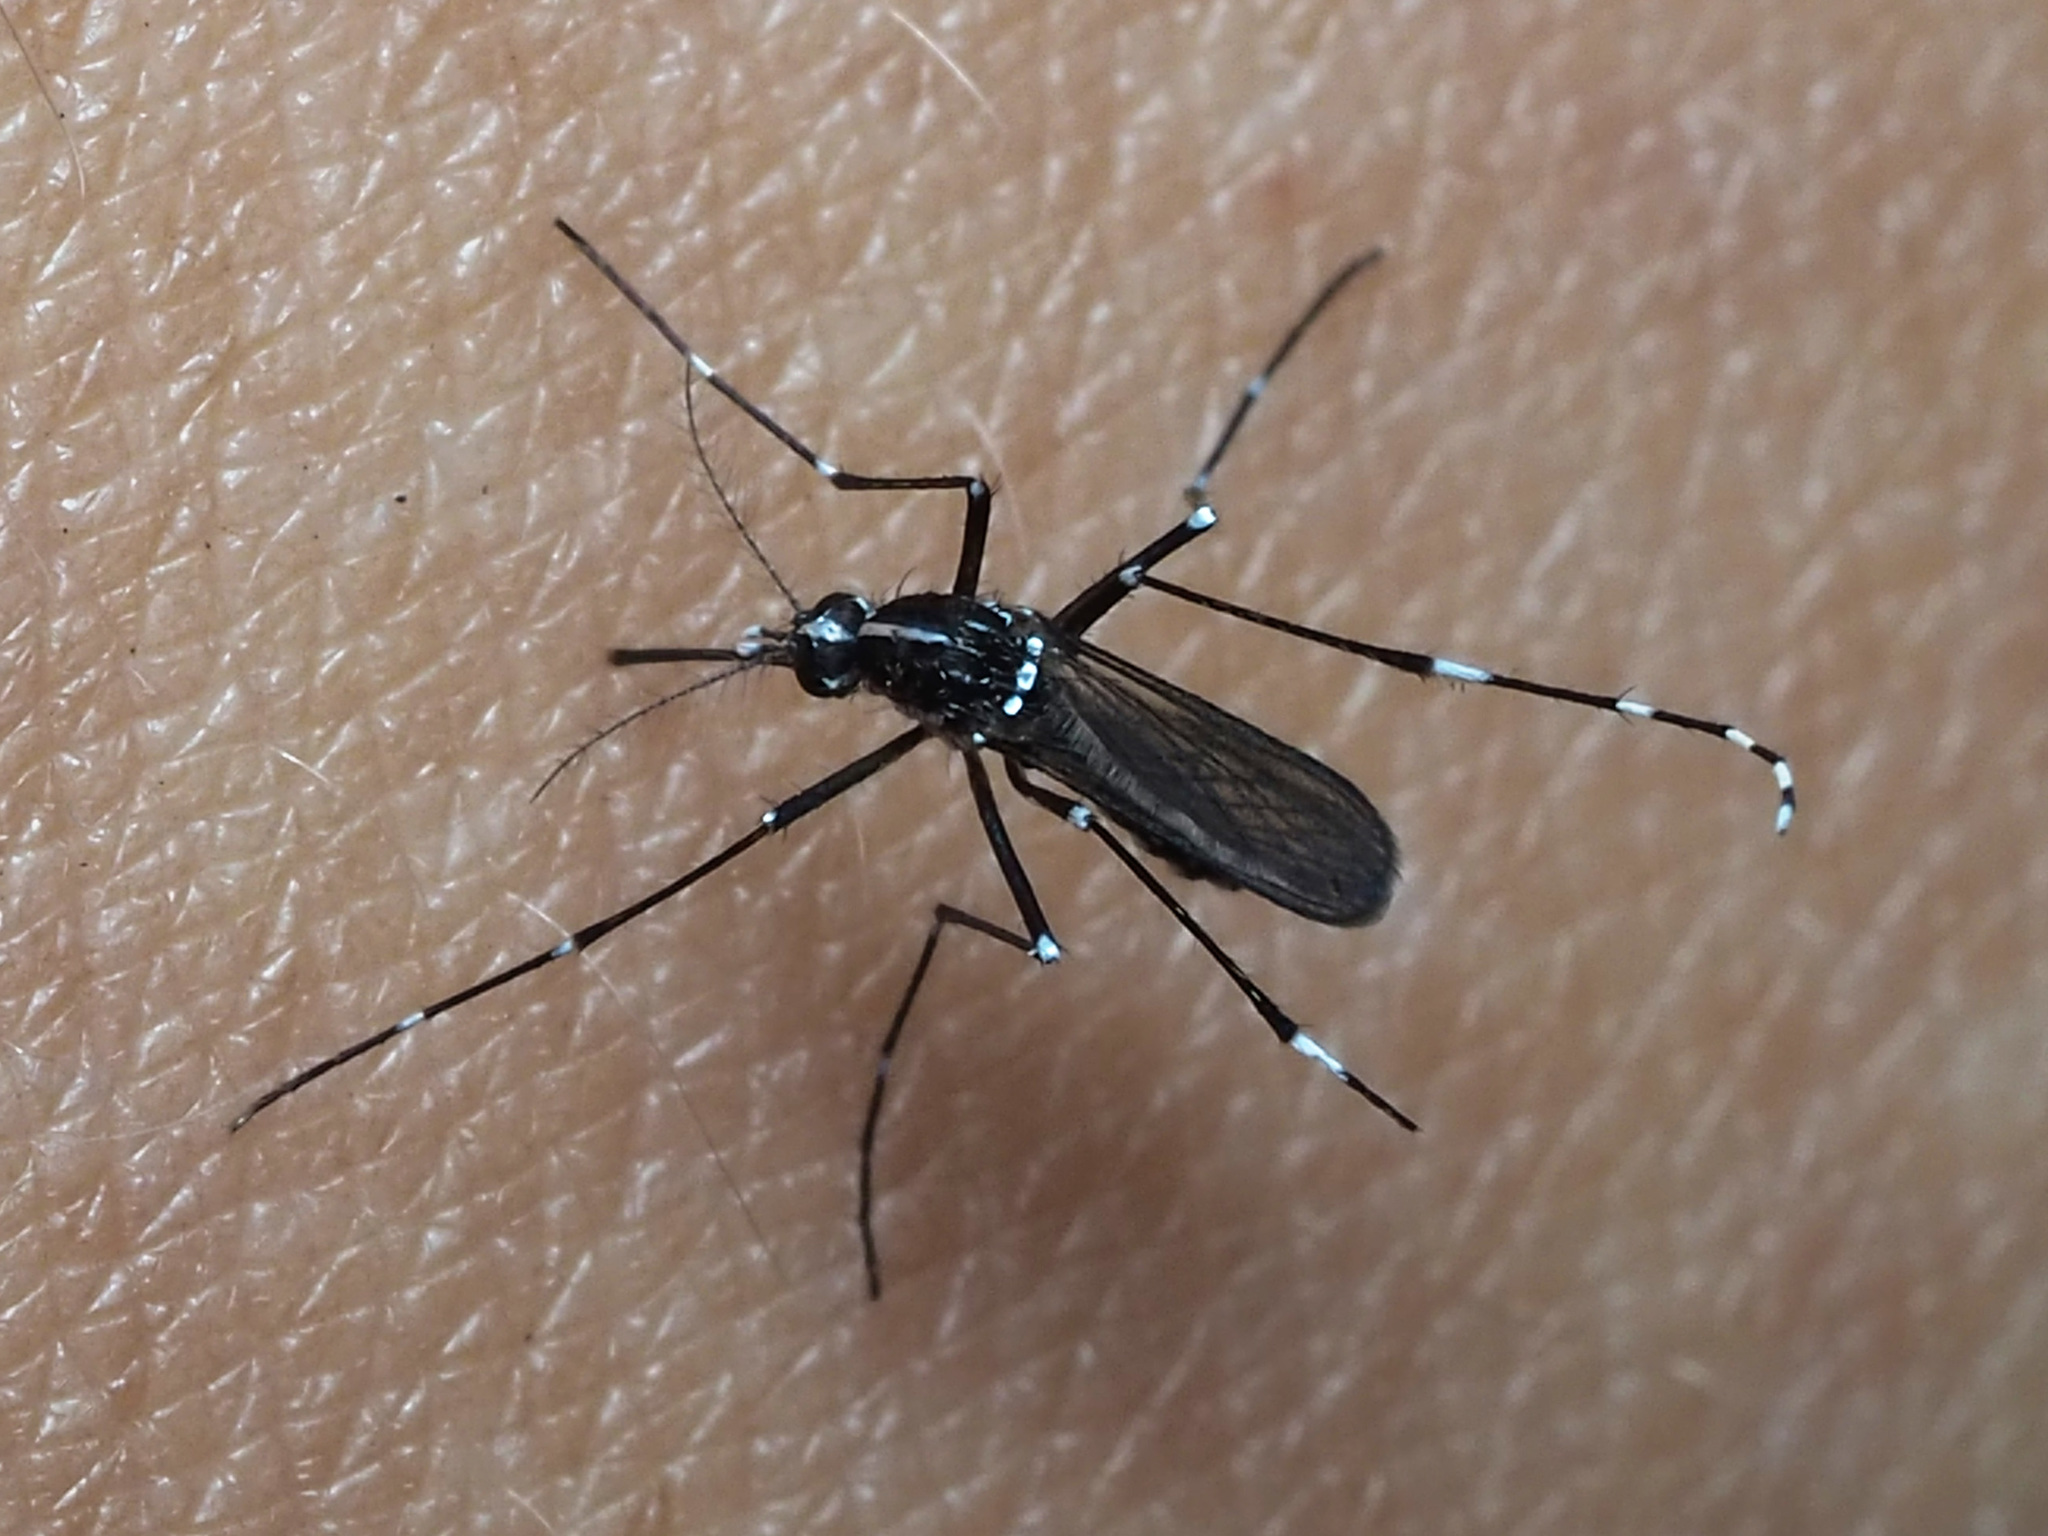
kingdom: Animalia
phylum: Arthropoda
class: Insecta
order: Diptera
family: Culicidae
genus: Aedes
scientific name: Aedes albopictus
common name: Tiger mosquito
